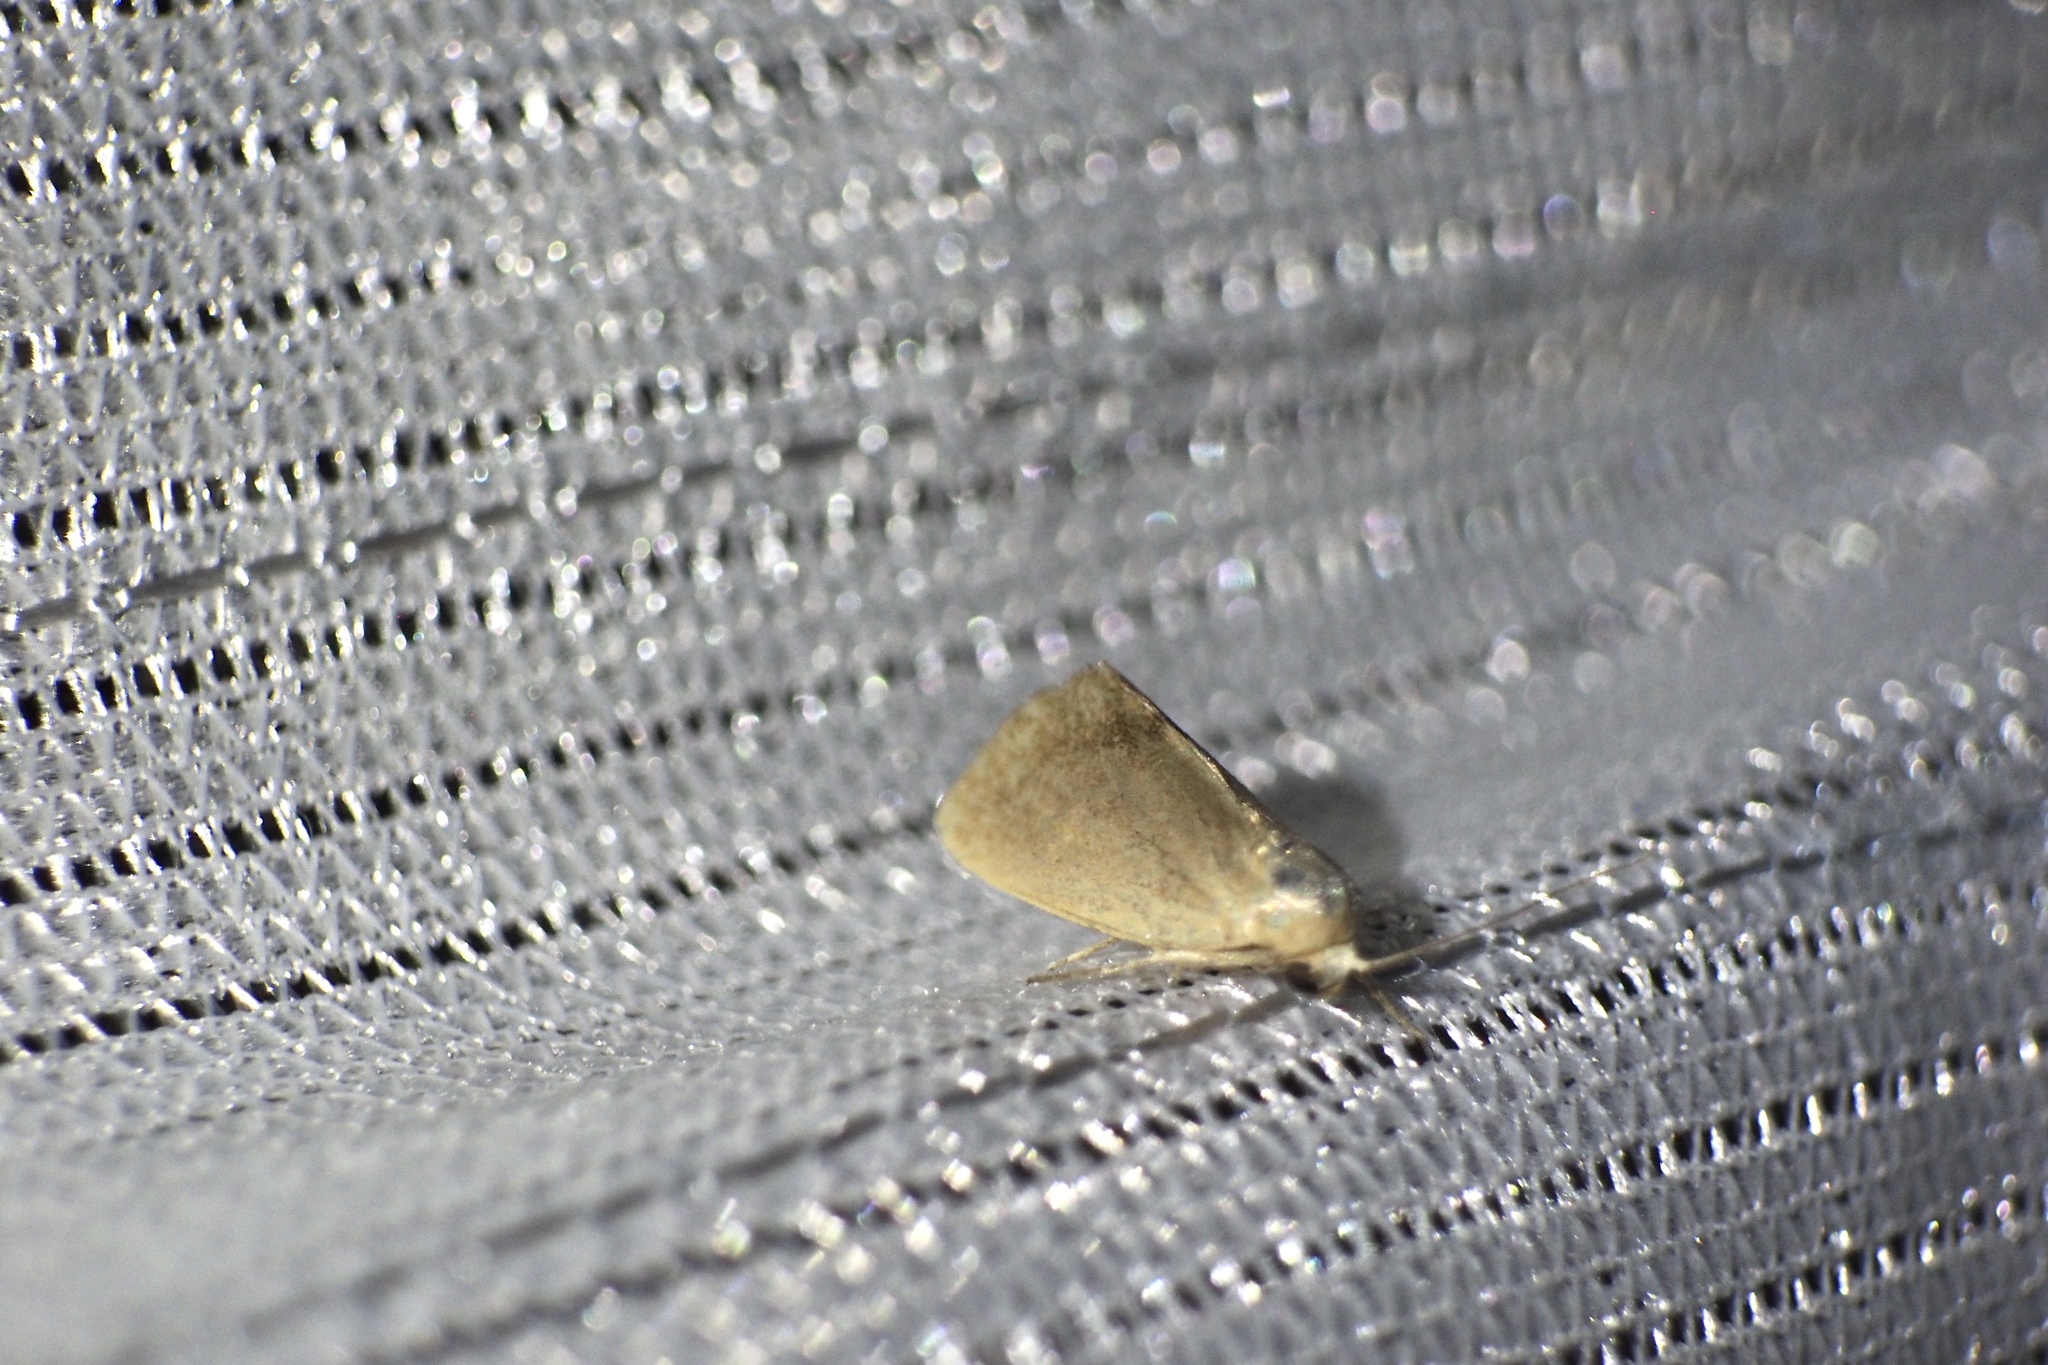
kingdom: Animalia
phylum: Arthropoda
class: Insecta
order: Lepidoptera
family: Nolidae
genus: Iragaodes
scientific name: Iragaodes nobilis
